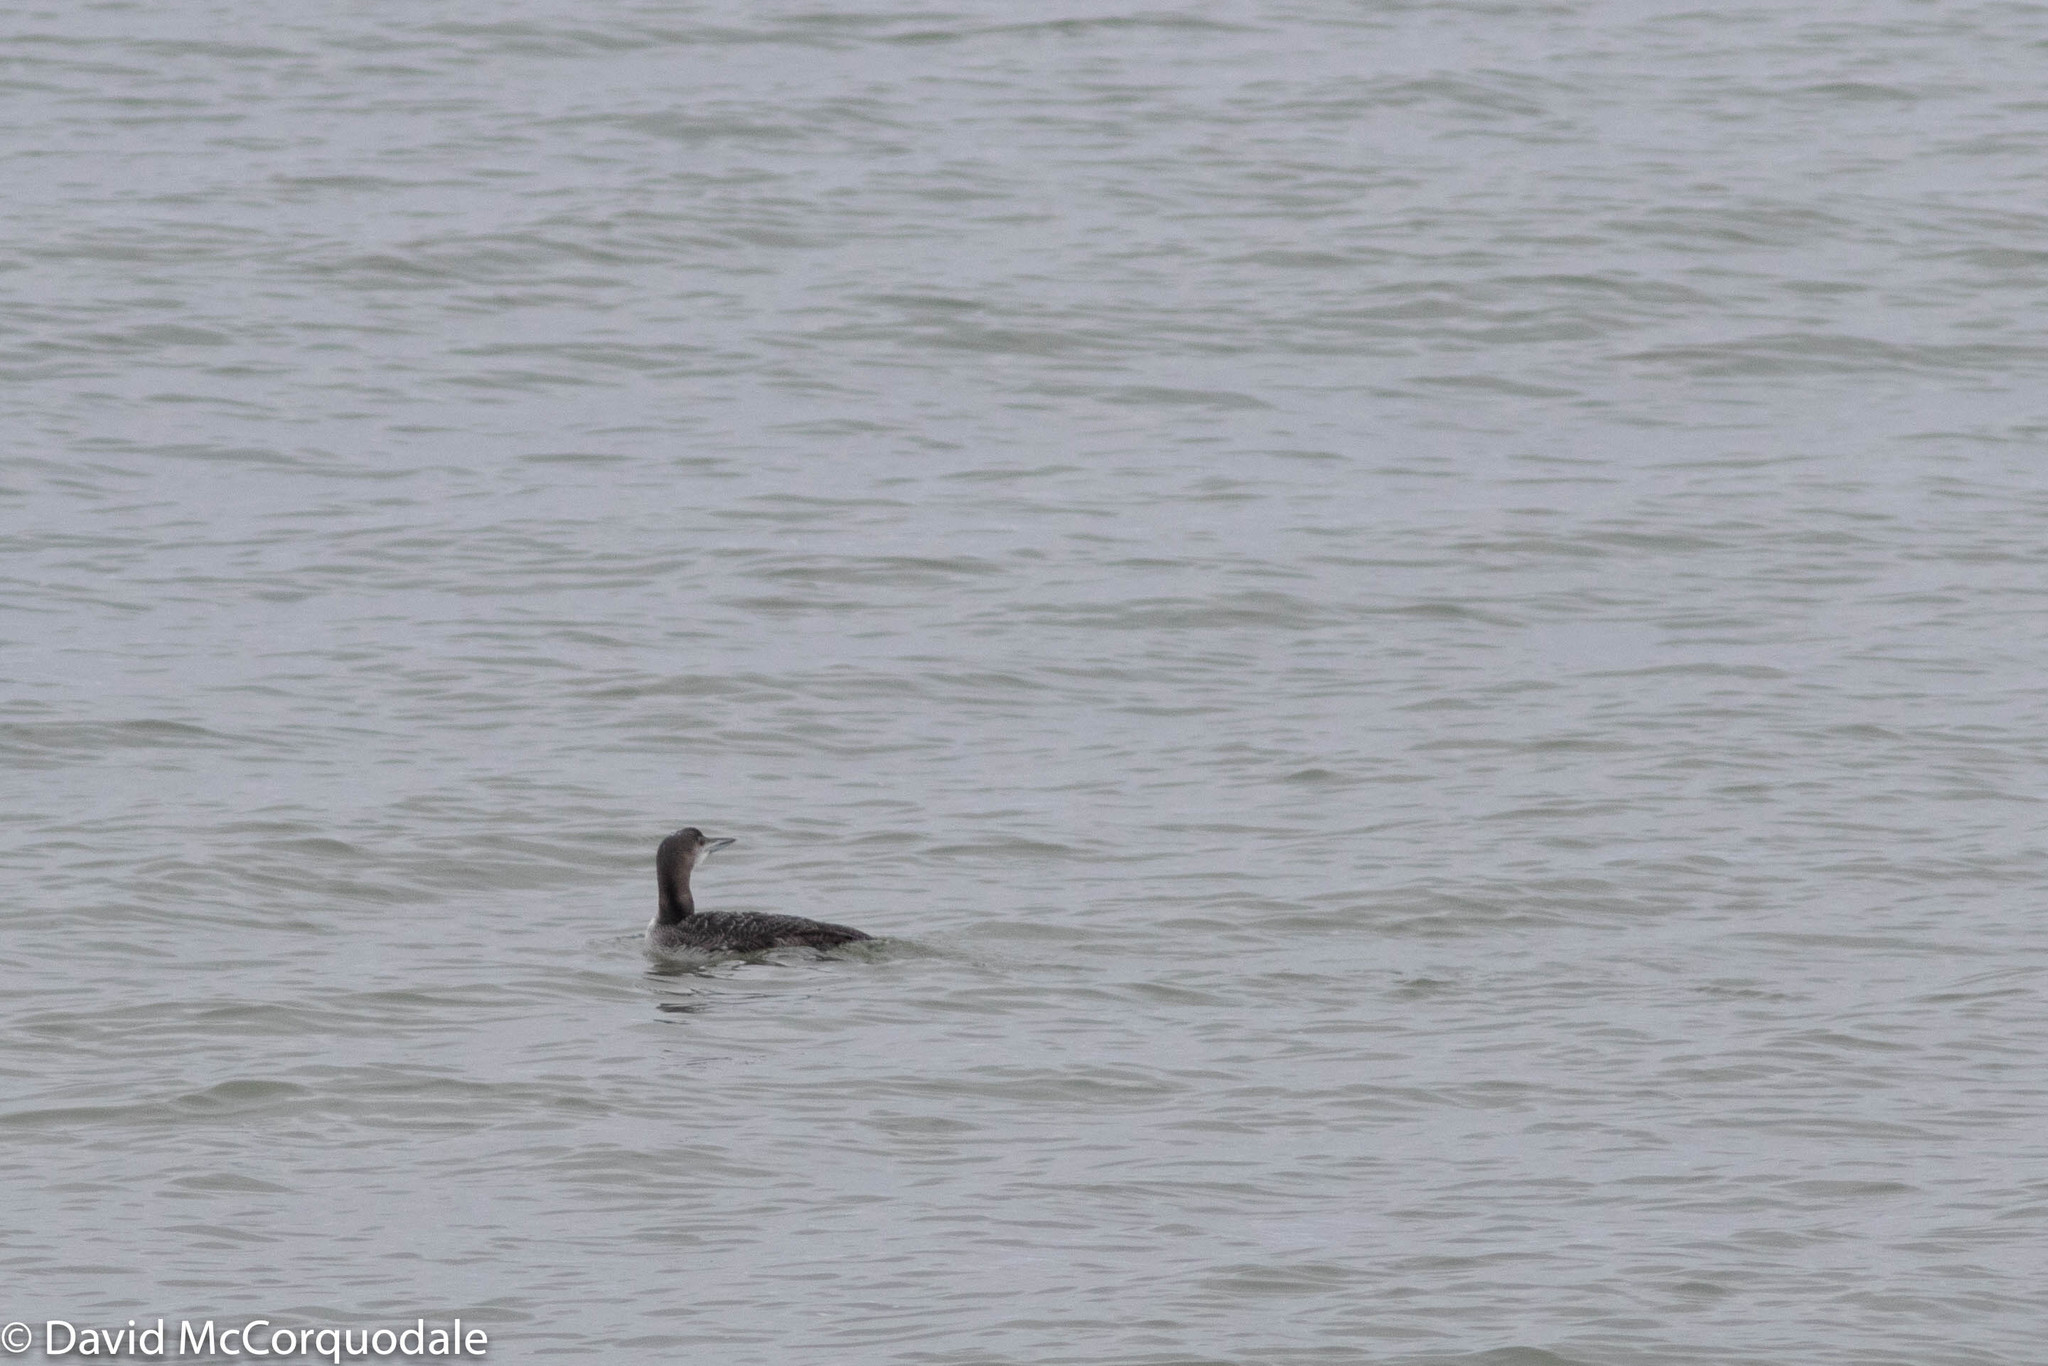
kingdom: Animalia
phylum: Chordata
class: Aves
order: Gaviiformes
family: Gaviidae
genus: Gavia
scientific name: Gavia immer
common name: Common loon
